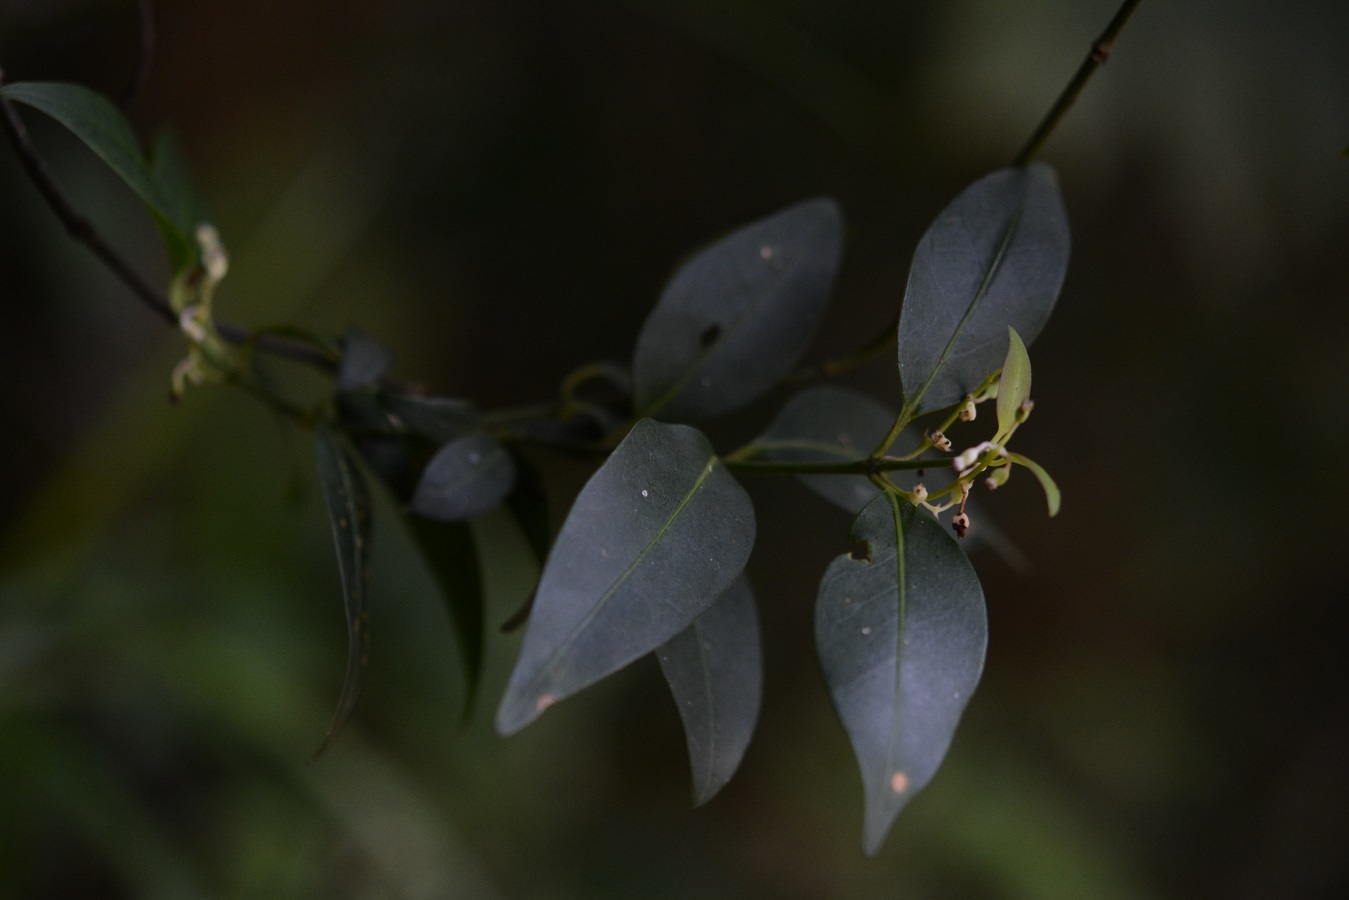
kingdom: Plantae
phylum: Tracheophyta
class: Magnoliopsida
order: Gentianales
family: Rubiaceae
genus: Chiococca
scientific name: Chiococca filipes
